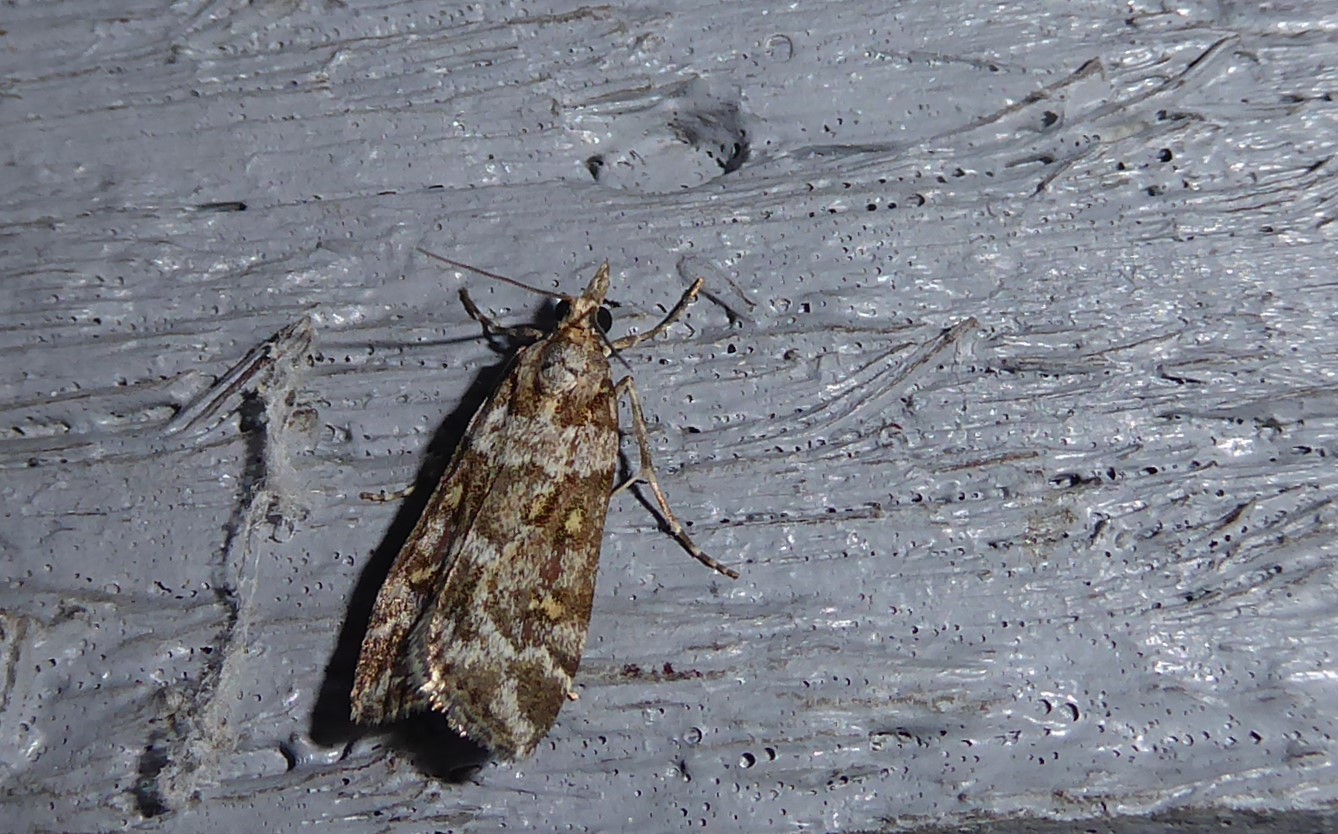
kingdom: Animalia
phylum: Arthropoda
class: Insecta
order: Lepidoptera
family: Crambidae
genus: Eudonia
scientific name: Eudonia diphtheralis
